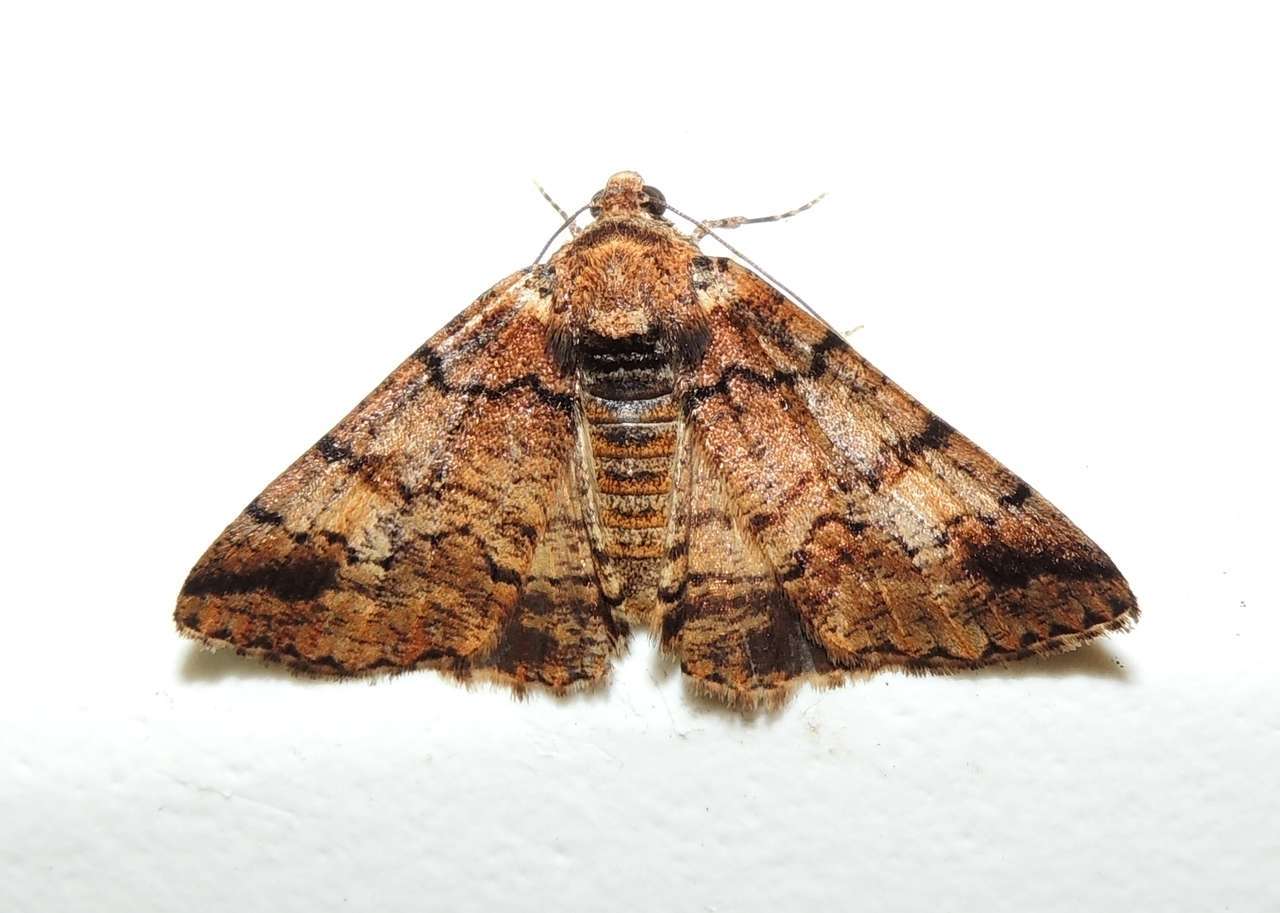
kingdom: Animalia
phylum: Arthropoda
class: Insecta
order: Lepidoptera
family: Geometridae
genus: Cryphaea
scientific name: Cryphaea xylina
